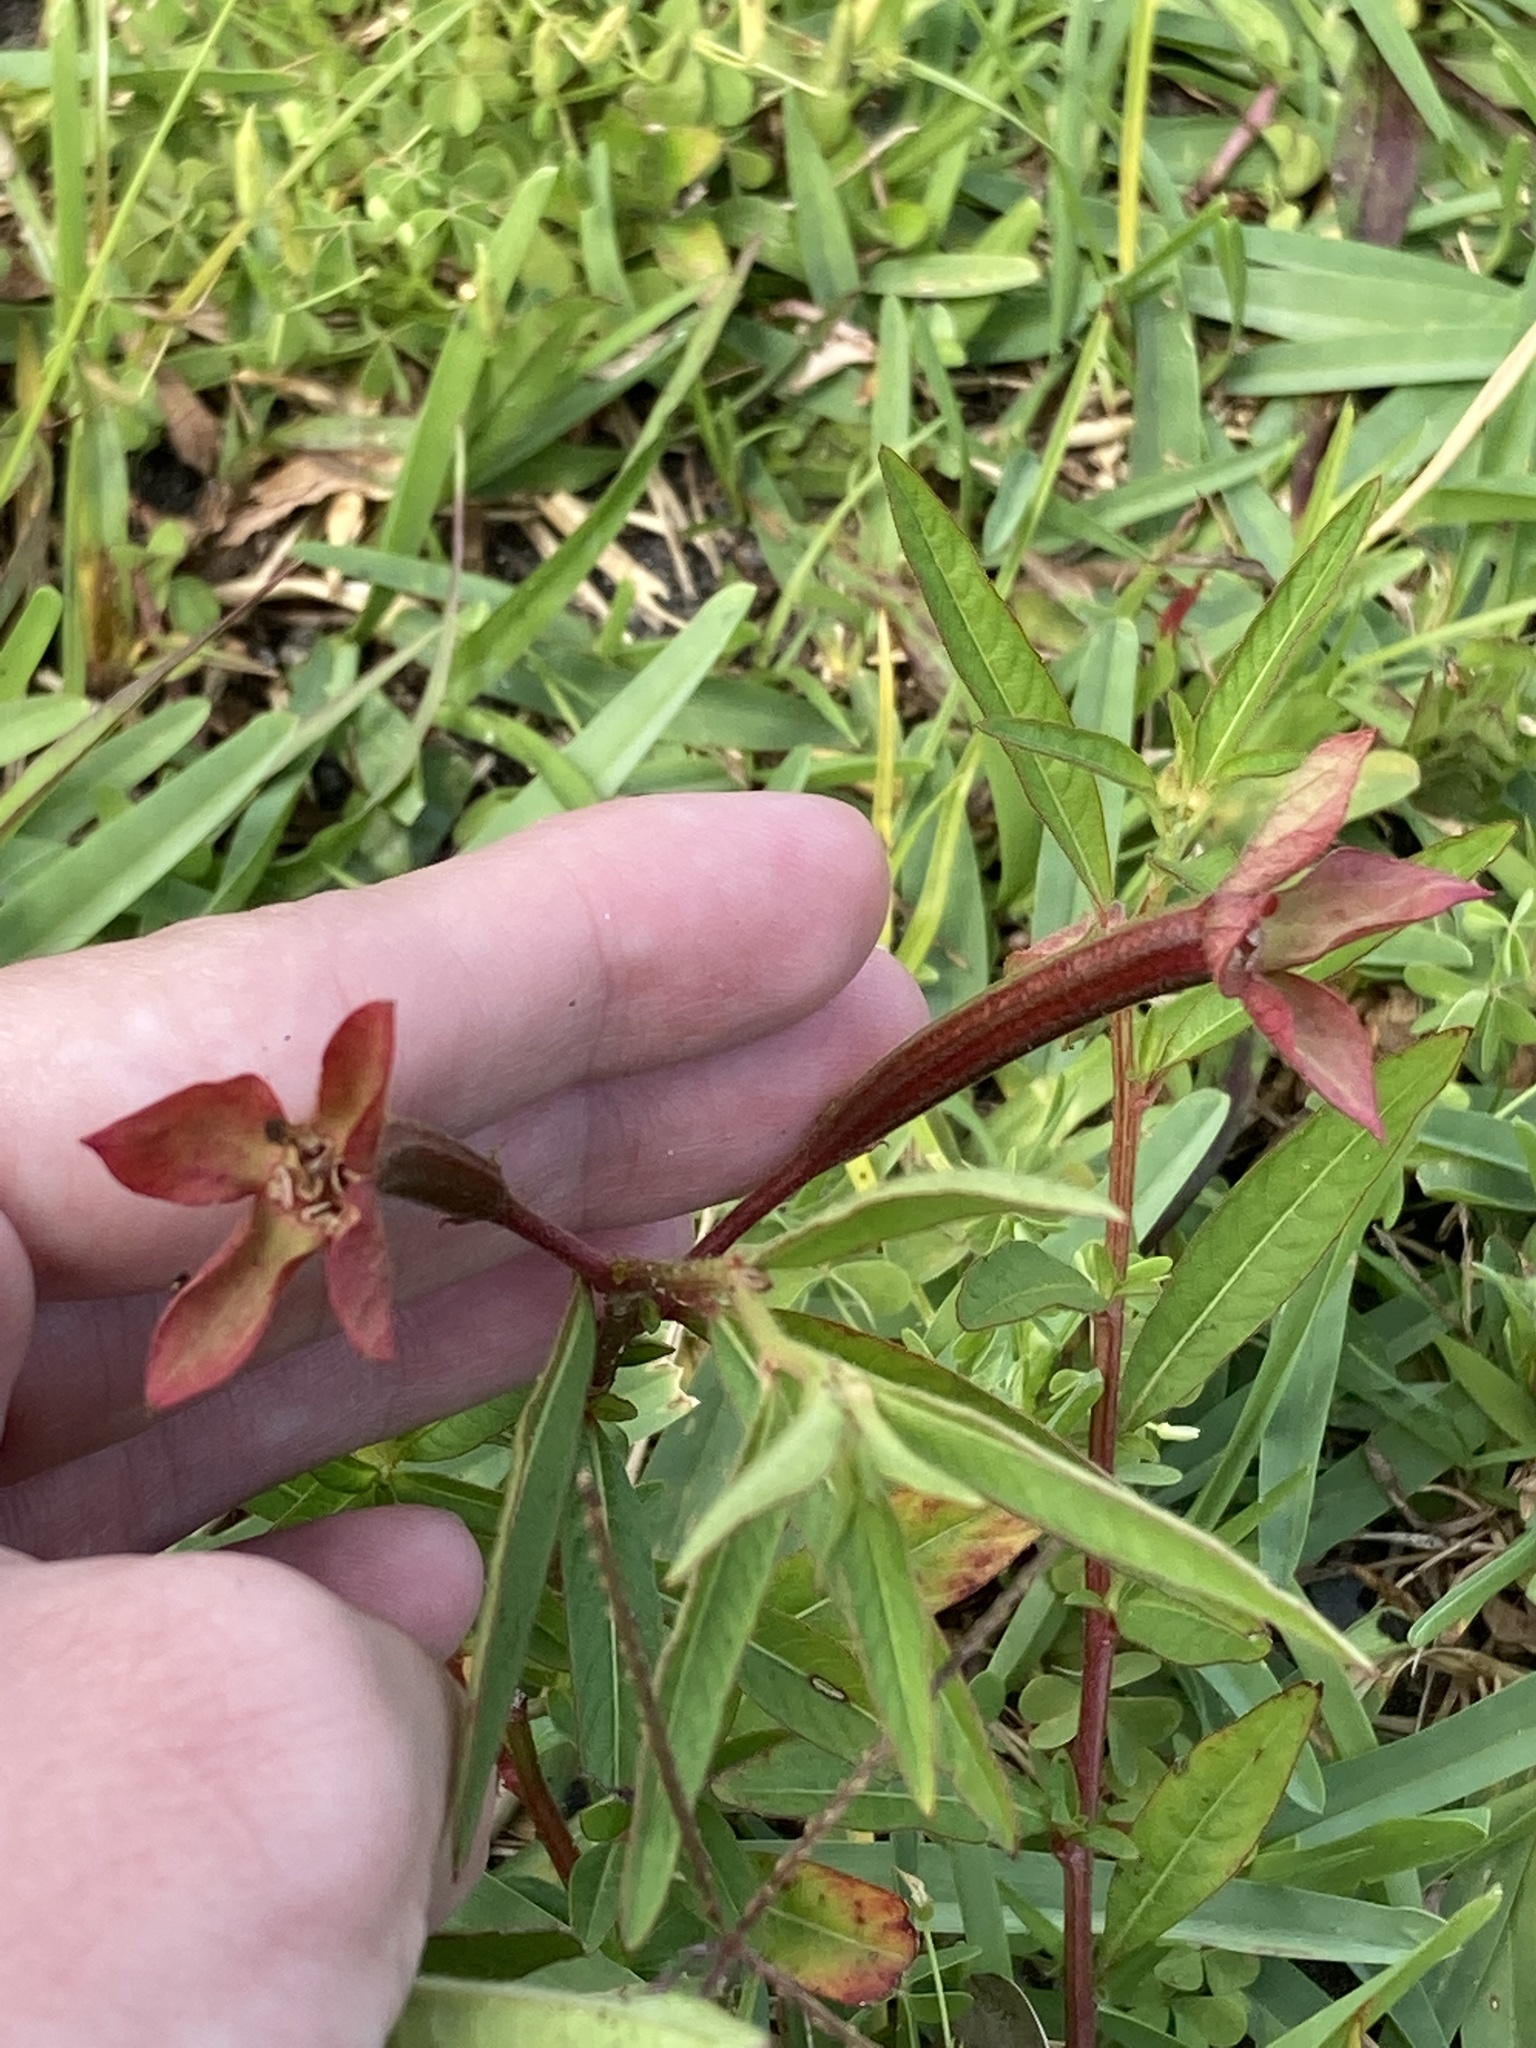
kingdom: Plantae
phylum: Tracheophyta
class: Magnoliopsida
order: Myrtales
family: Onagraceae
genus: Ludwigia
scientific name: Ludwigia octovalvis
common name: Water-primrose
